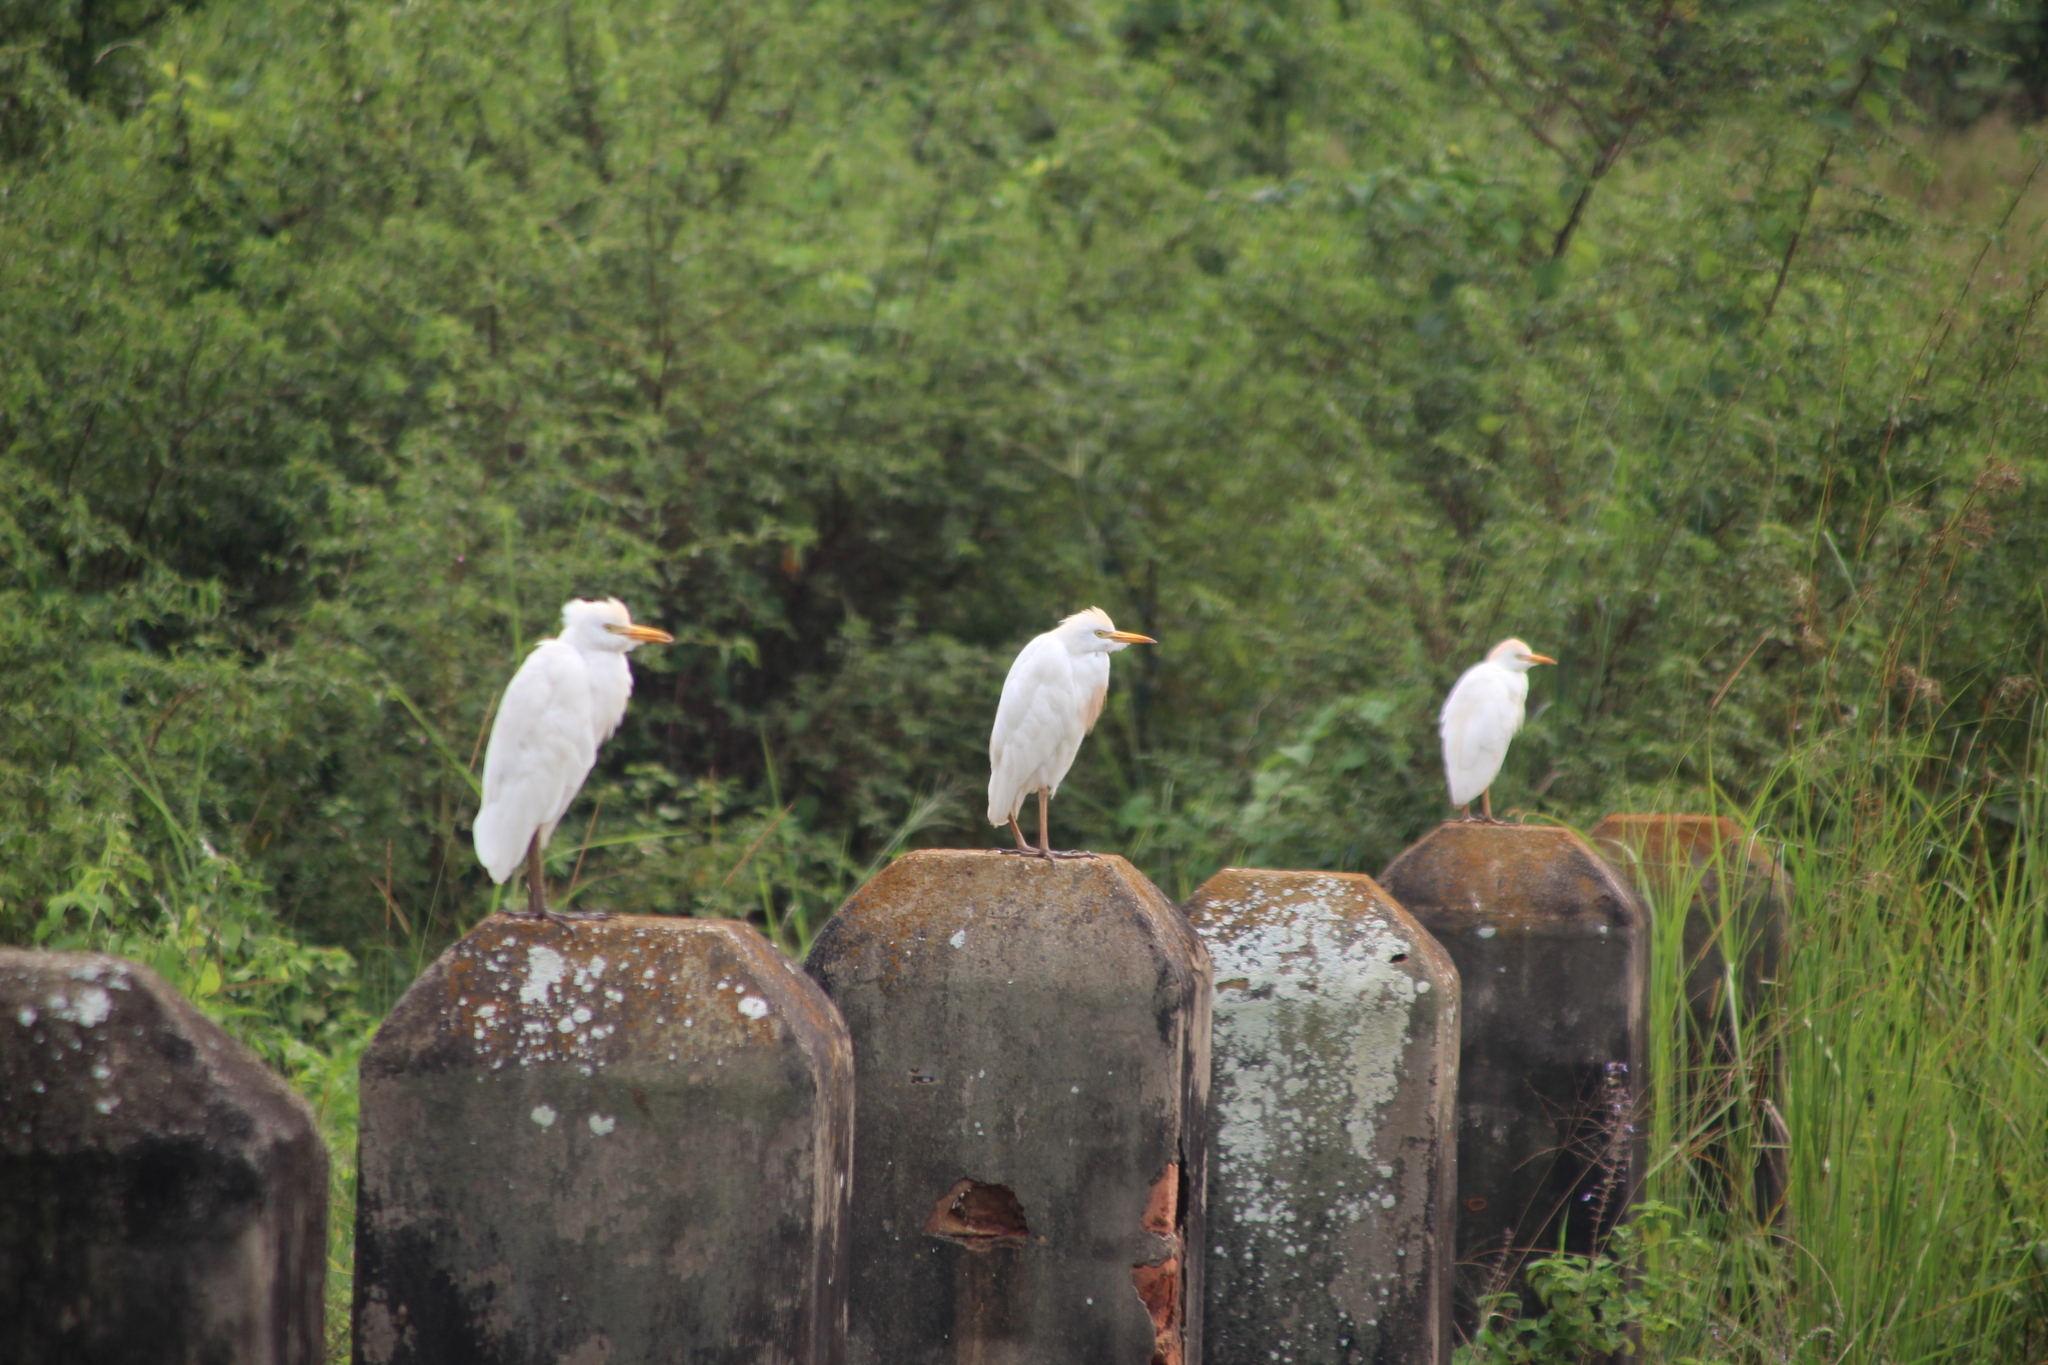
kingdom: Animalia
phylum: Chordata
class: Aves
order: Pelecaniformes
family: Ardeidae
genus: Bubulcus
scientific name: Bubulcus ibis
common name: Cattle egret
